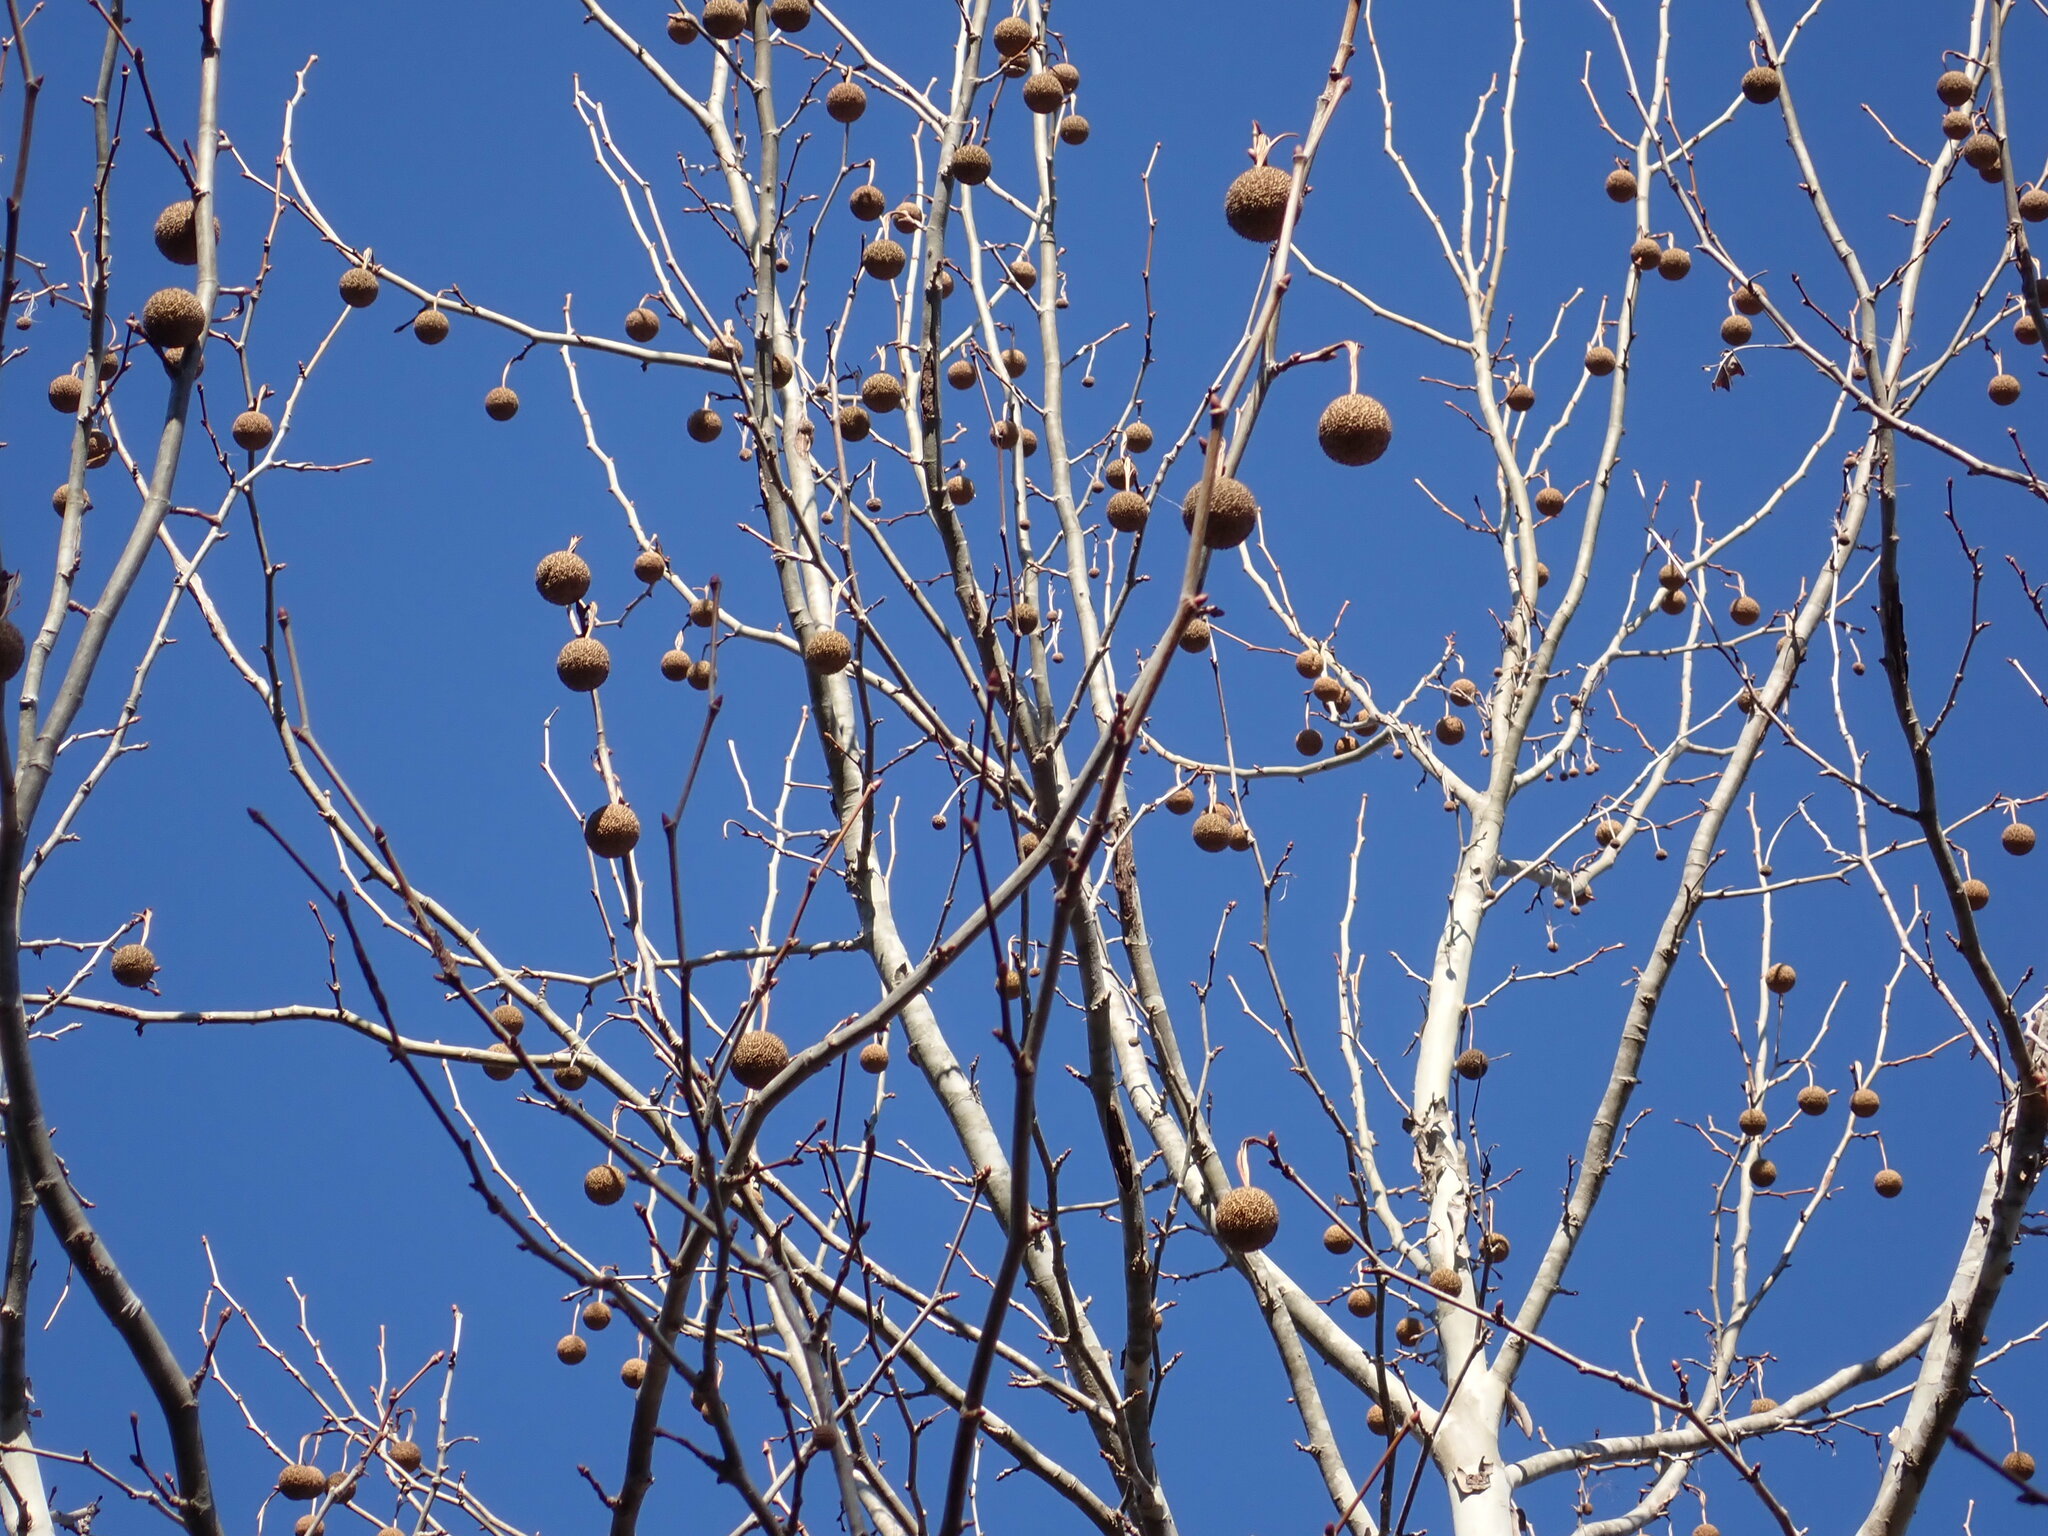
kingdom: Plantae
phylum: Tracheophyta
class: Magnoliopsida
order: Proteales
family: Platanaceae
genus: Platanus
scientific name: Platanus occidentalis
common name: American sycamore
